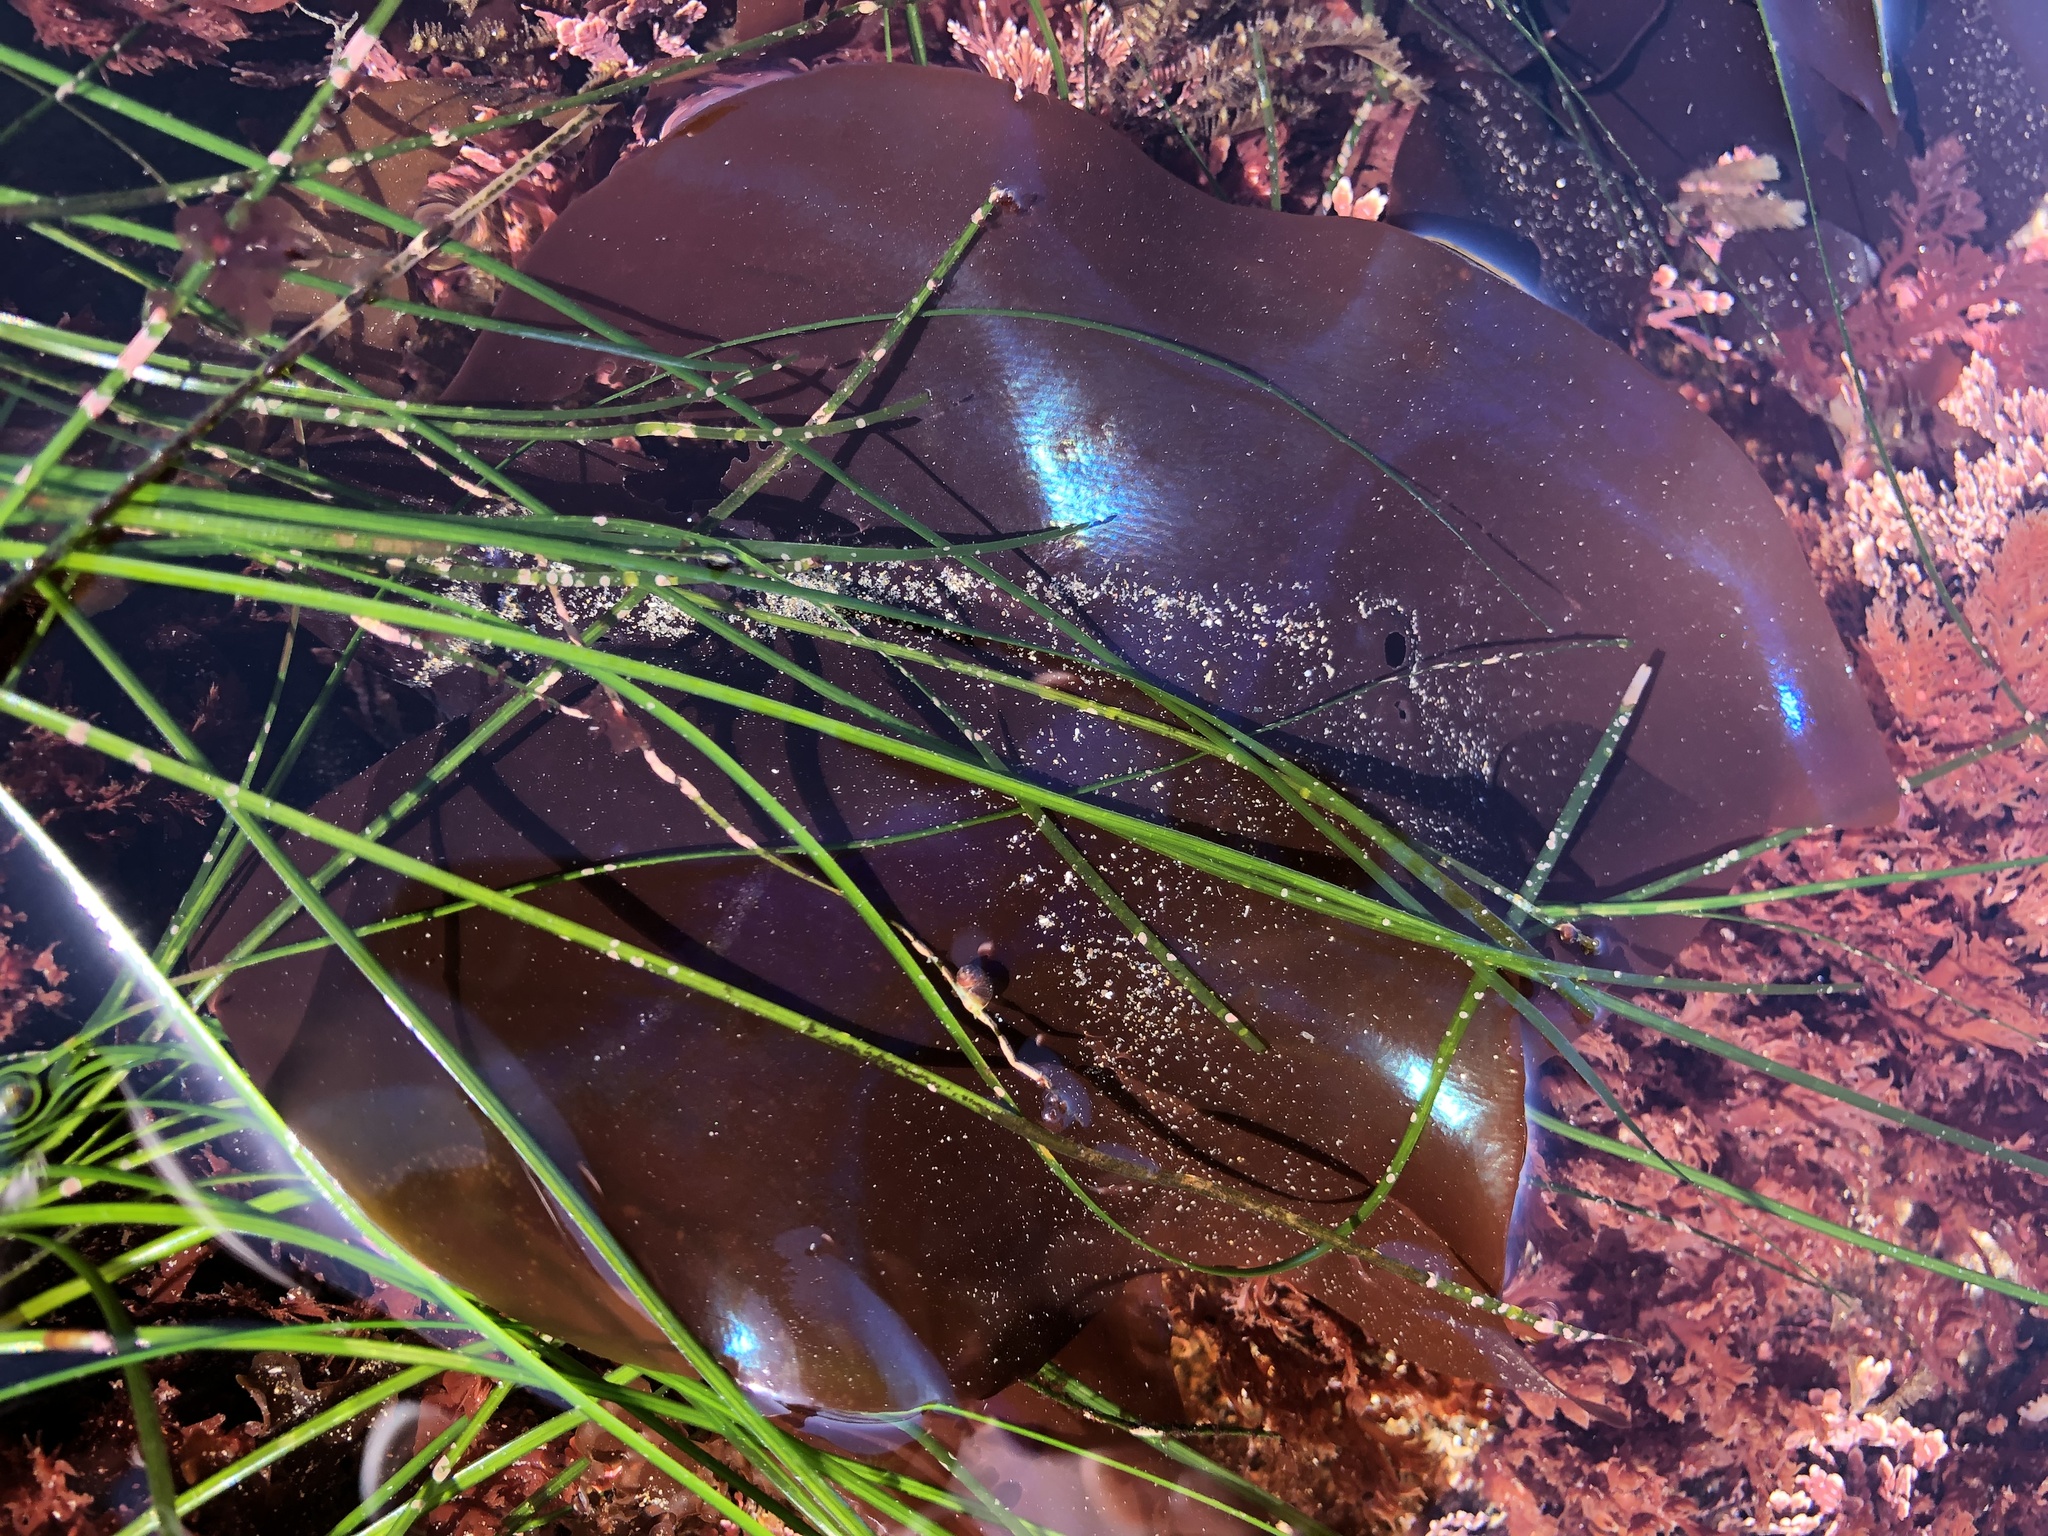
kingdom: Plantae
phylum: Rhodophyta
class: Florideophyceae
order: Gigartinales
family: Gigartinaceae
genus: Mazzaella
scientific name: Mazzaella splendens
